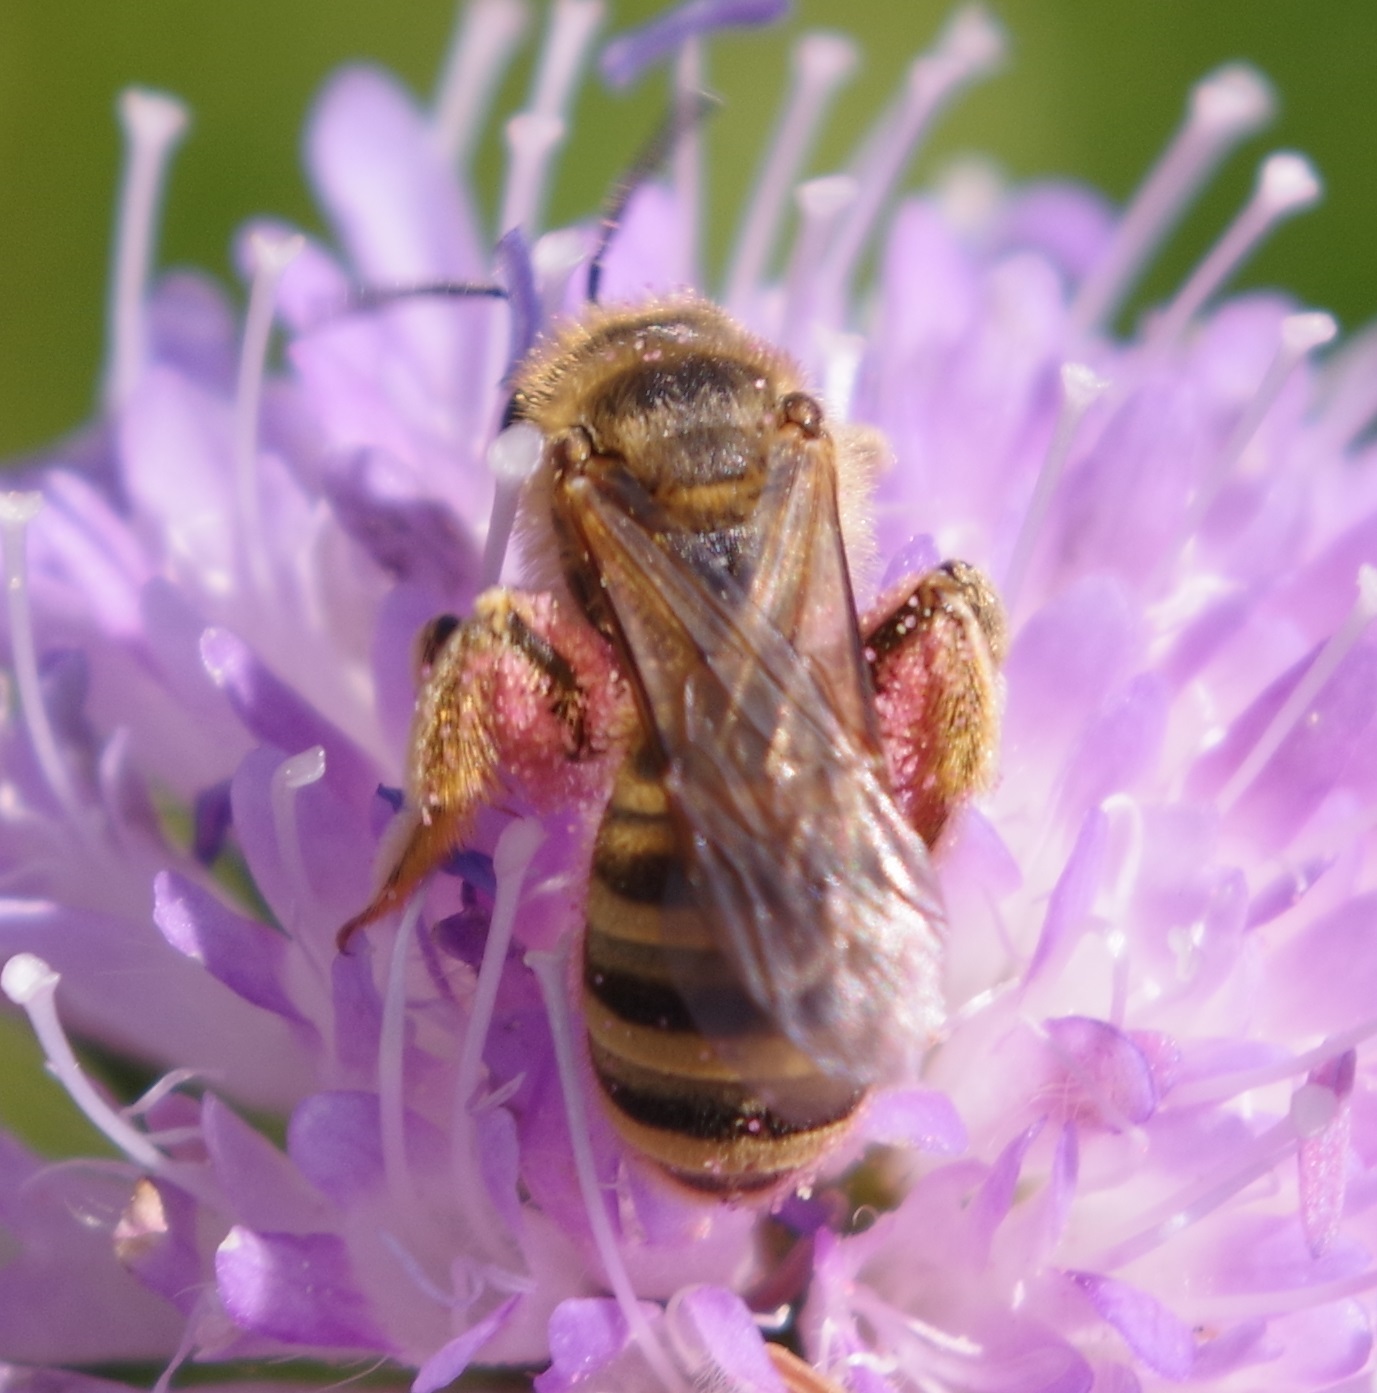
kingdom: Animalia
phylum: Arthropoda
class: Insecta
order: Hymenoptera
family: Halictidae
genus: Halictus
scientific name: Halictus scabiosae
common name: Great banded furrow bee
